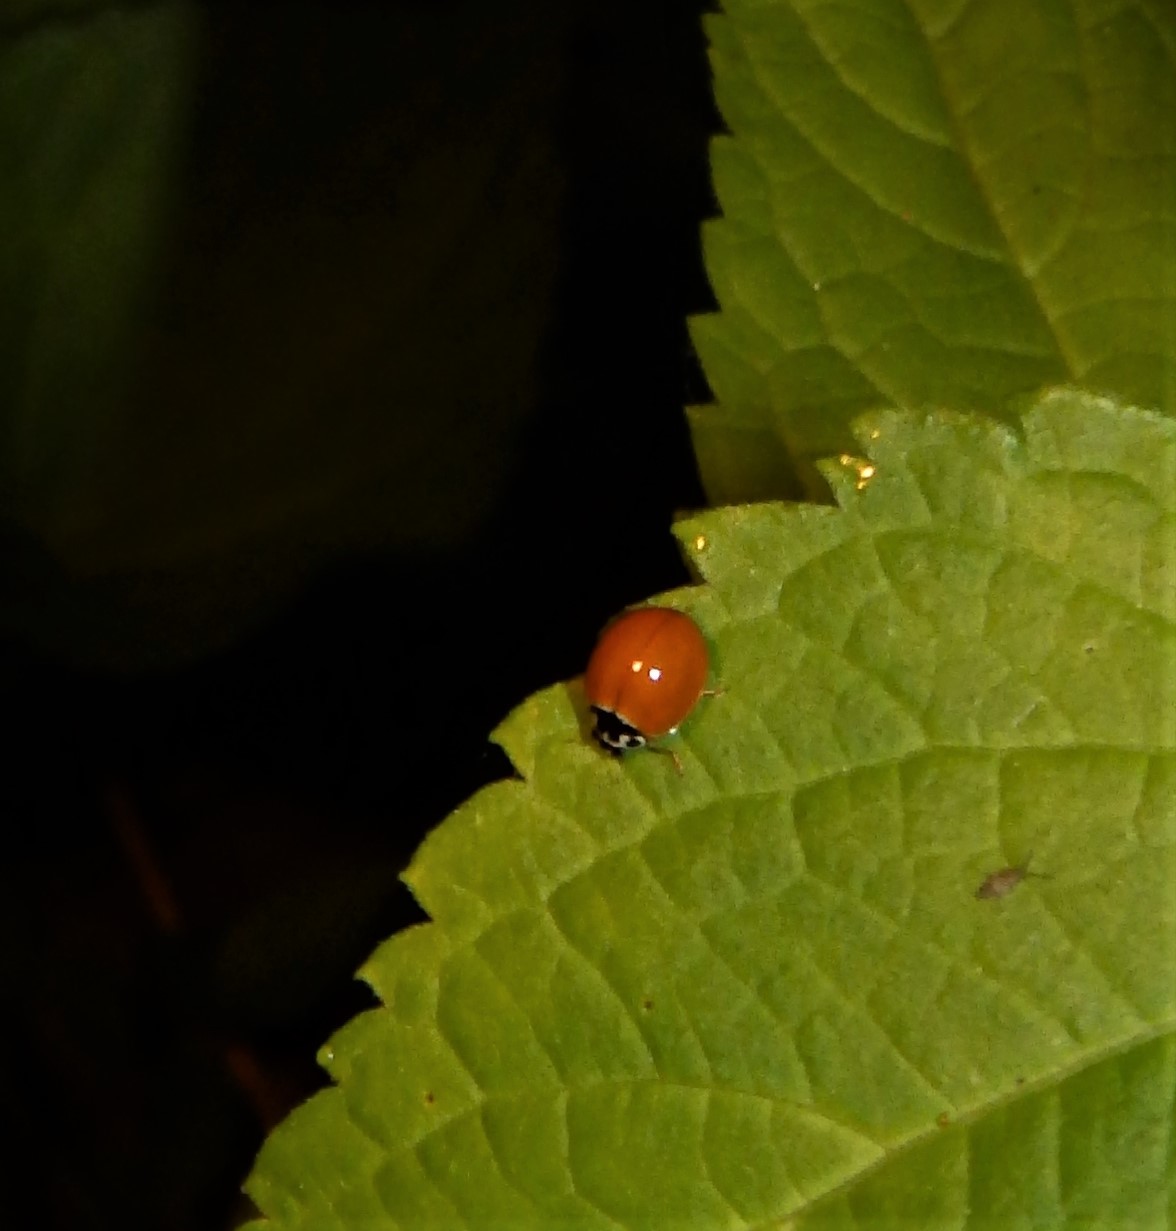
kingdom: Animalia
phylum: Arthropoda
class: Insecta
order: Coleoptera
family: Coccinellidae
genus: Cycloneda
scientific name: Cycloneda munda
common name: Polished lady beetle
